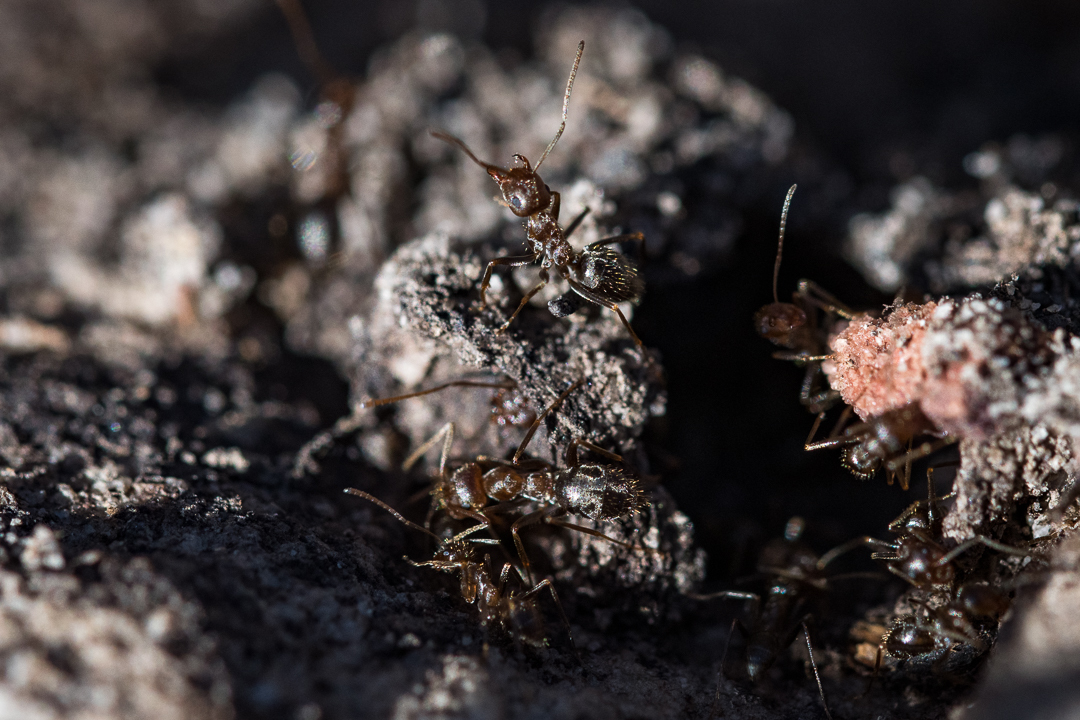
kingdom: Animalia
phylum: Arthropoda
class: Insecta
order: Hymenoptera
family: Formicidae
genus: Anoplolepis
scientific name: Anoplolepis steingroeveri
